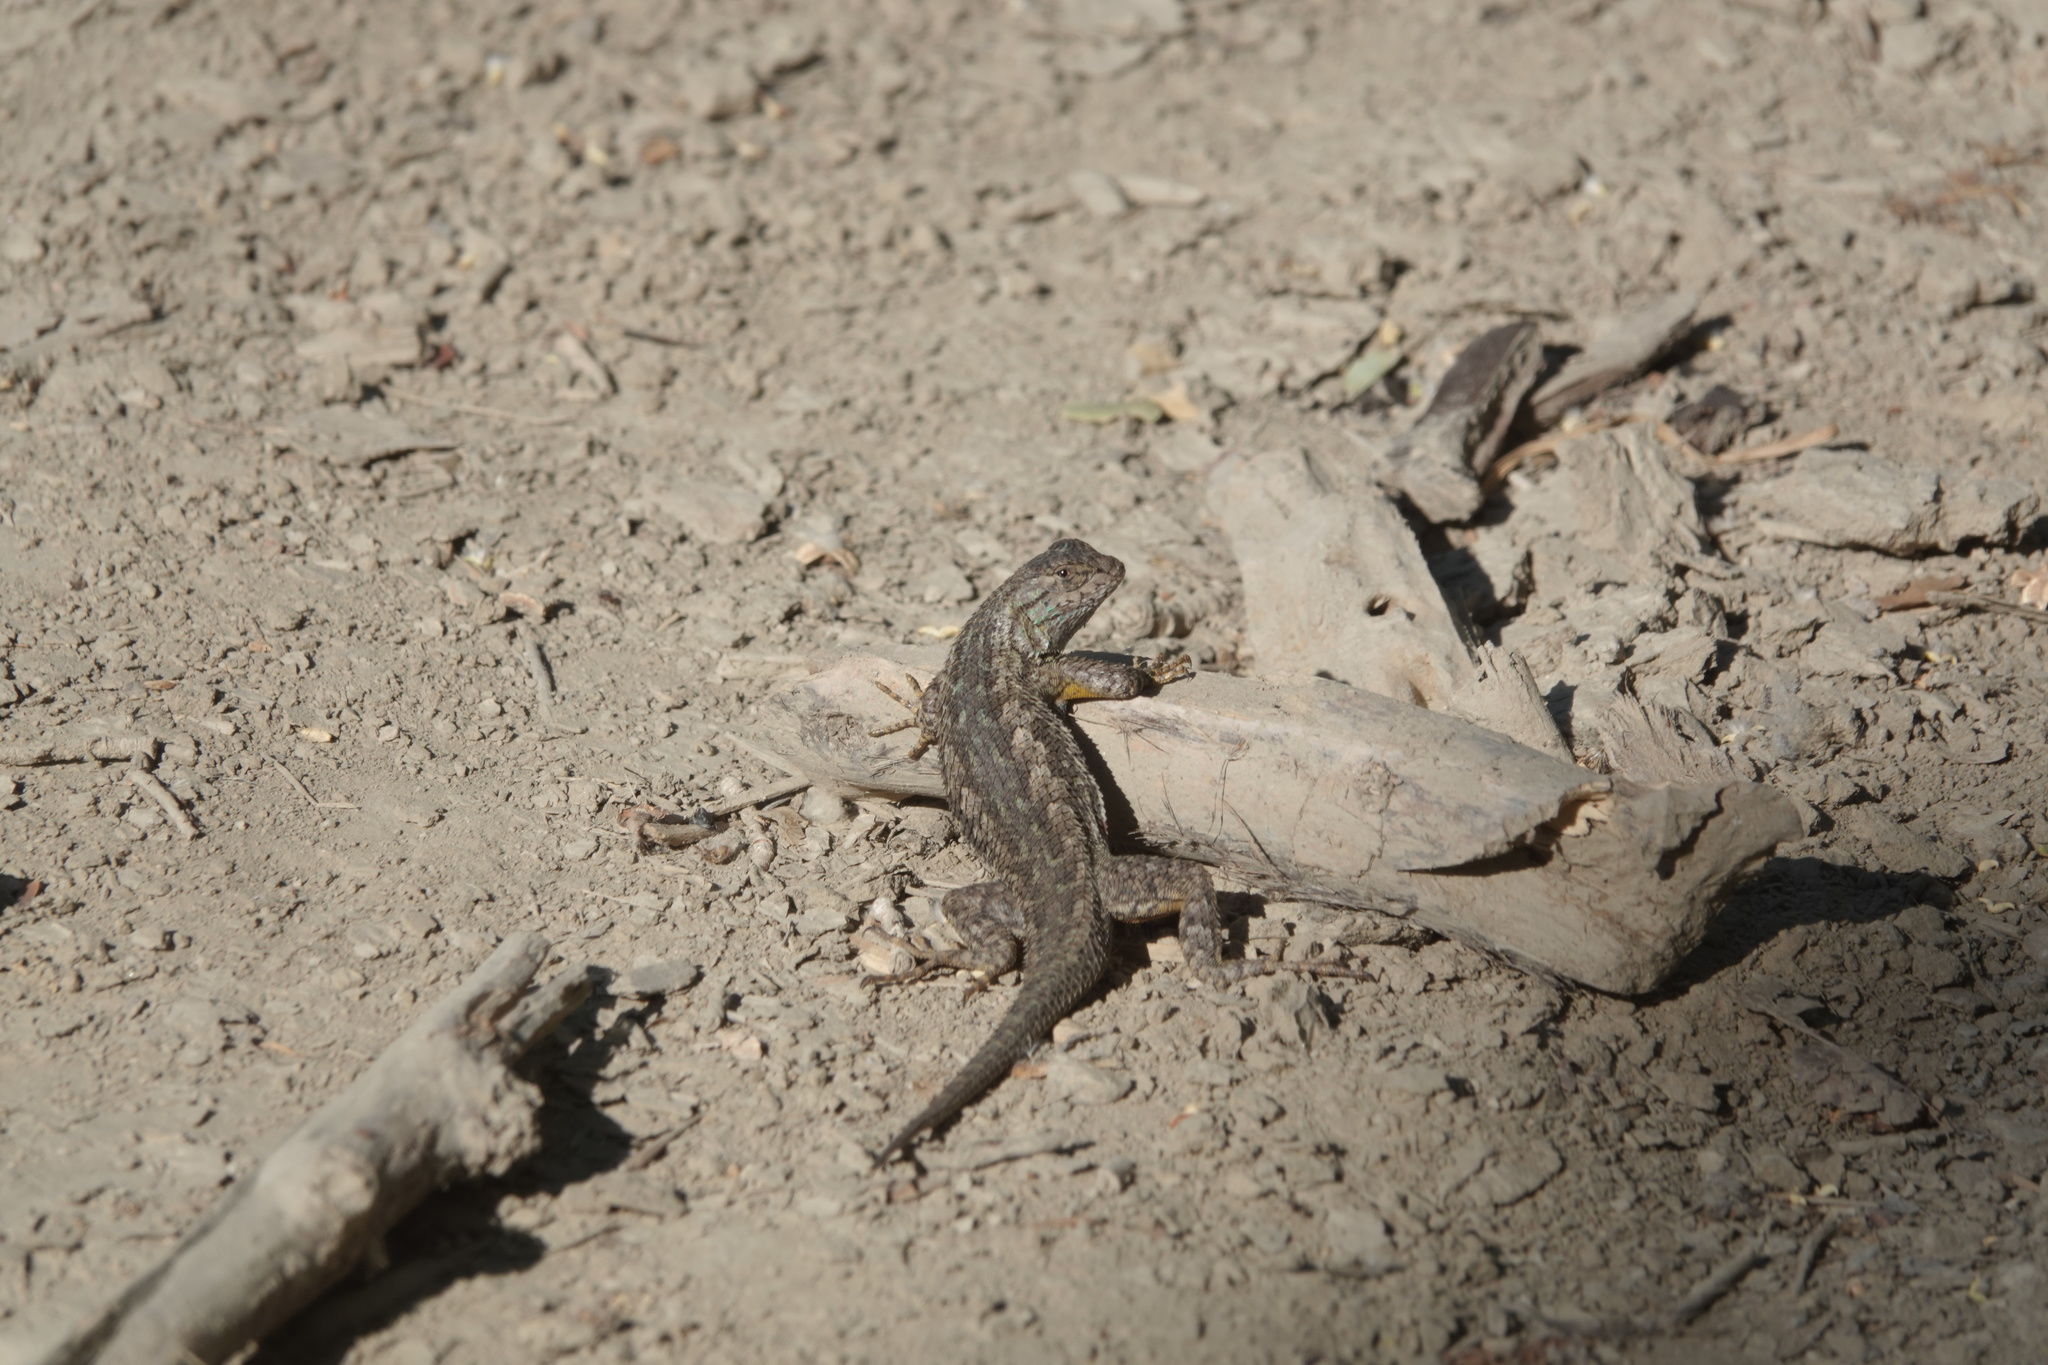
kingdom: Animalia
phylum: Chordata
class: Squamata
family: Phrynosomatidae
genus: Sceloporus
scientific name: Sceloporus occidentalis
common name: Western fence lizard
